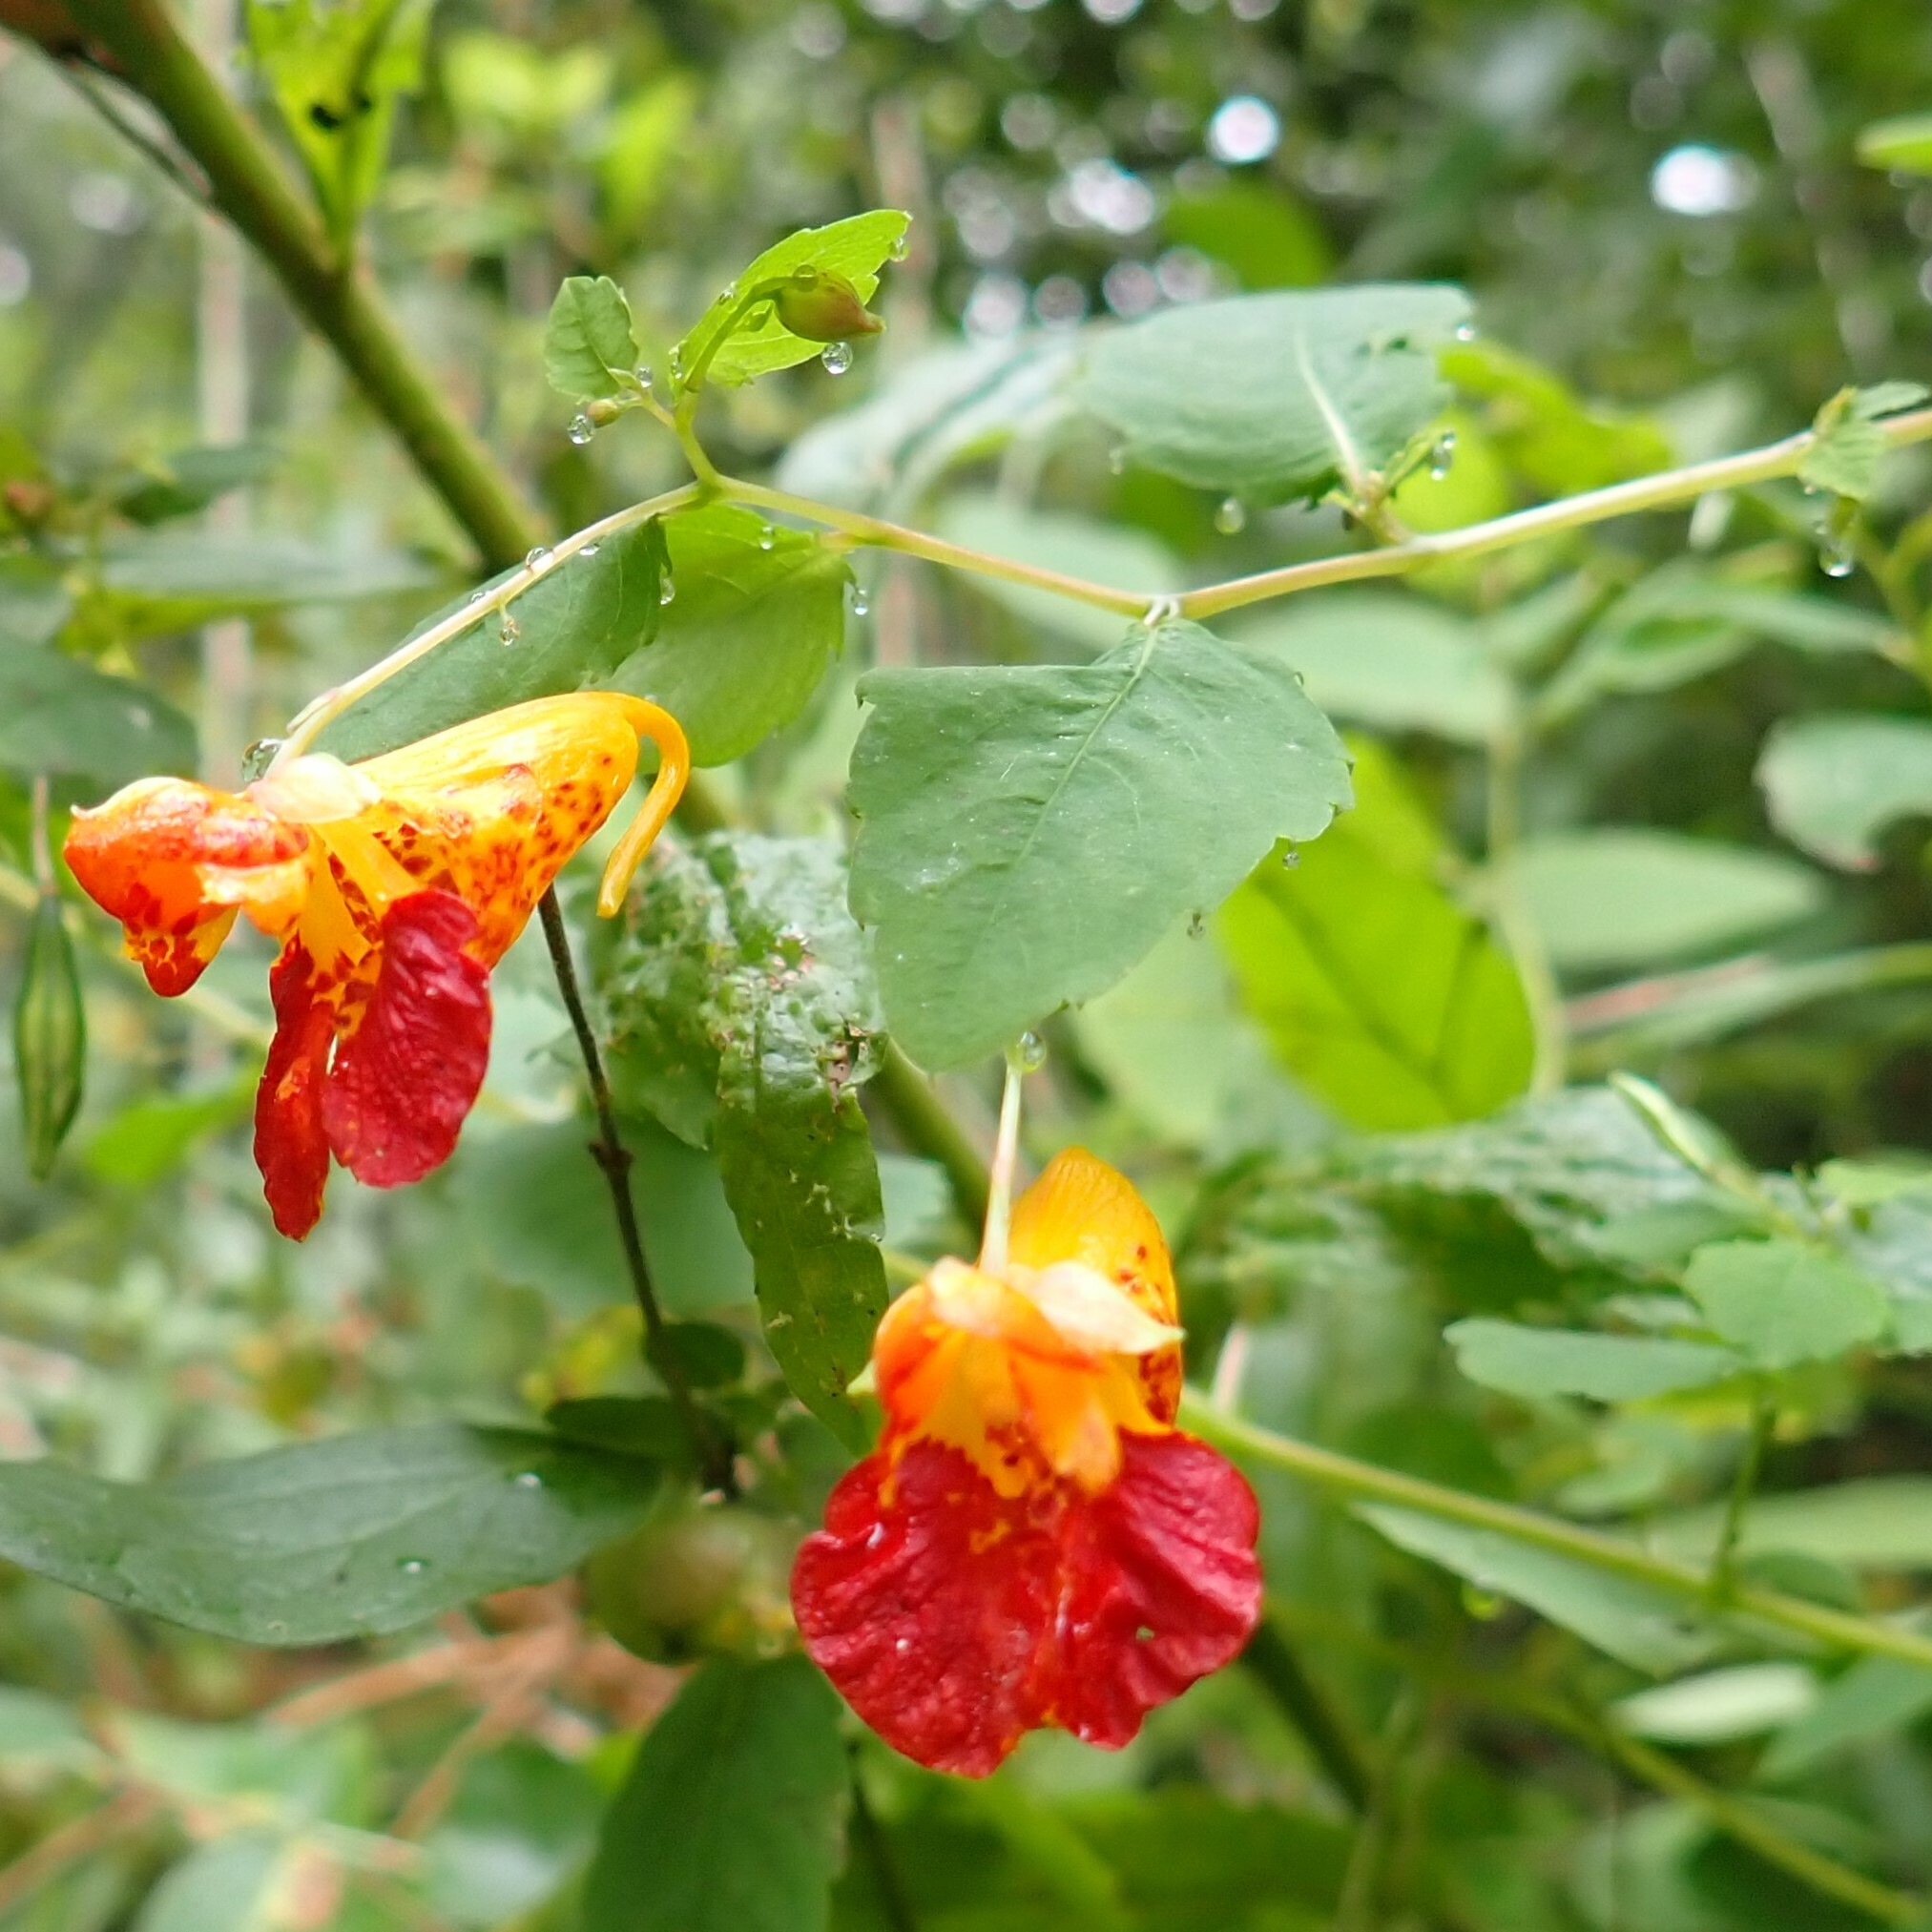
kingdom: Plantae
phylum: Tracheophyta
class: Magnoliopsida
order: Ericales
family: Balsaminaceae
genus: Impatiens
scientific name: Impatiens capensis
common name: Orange balsam
